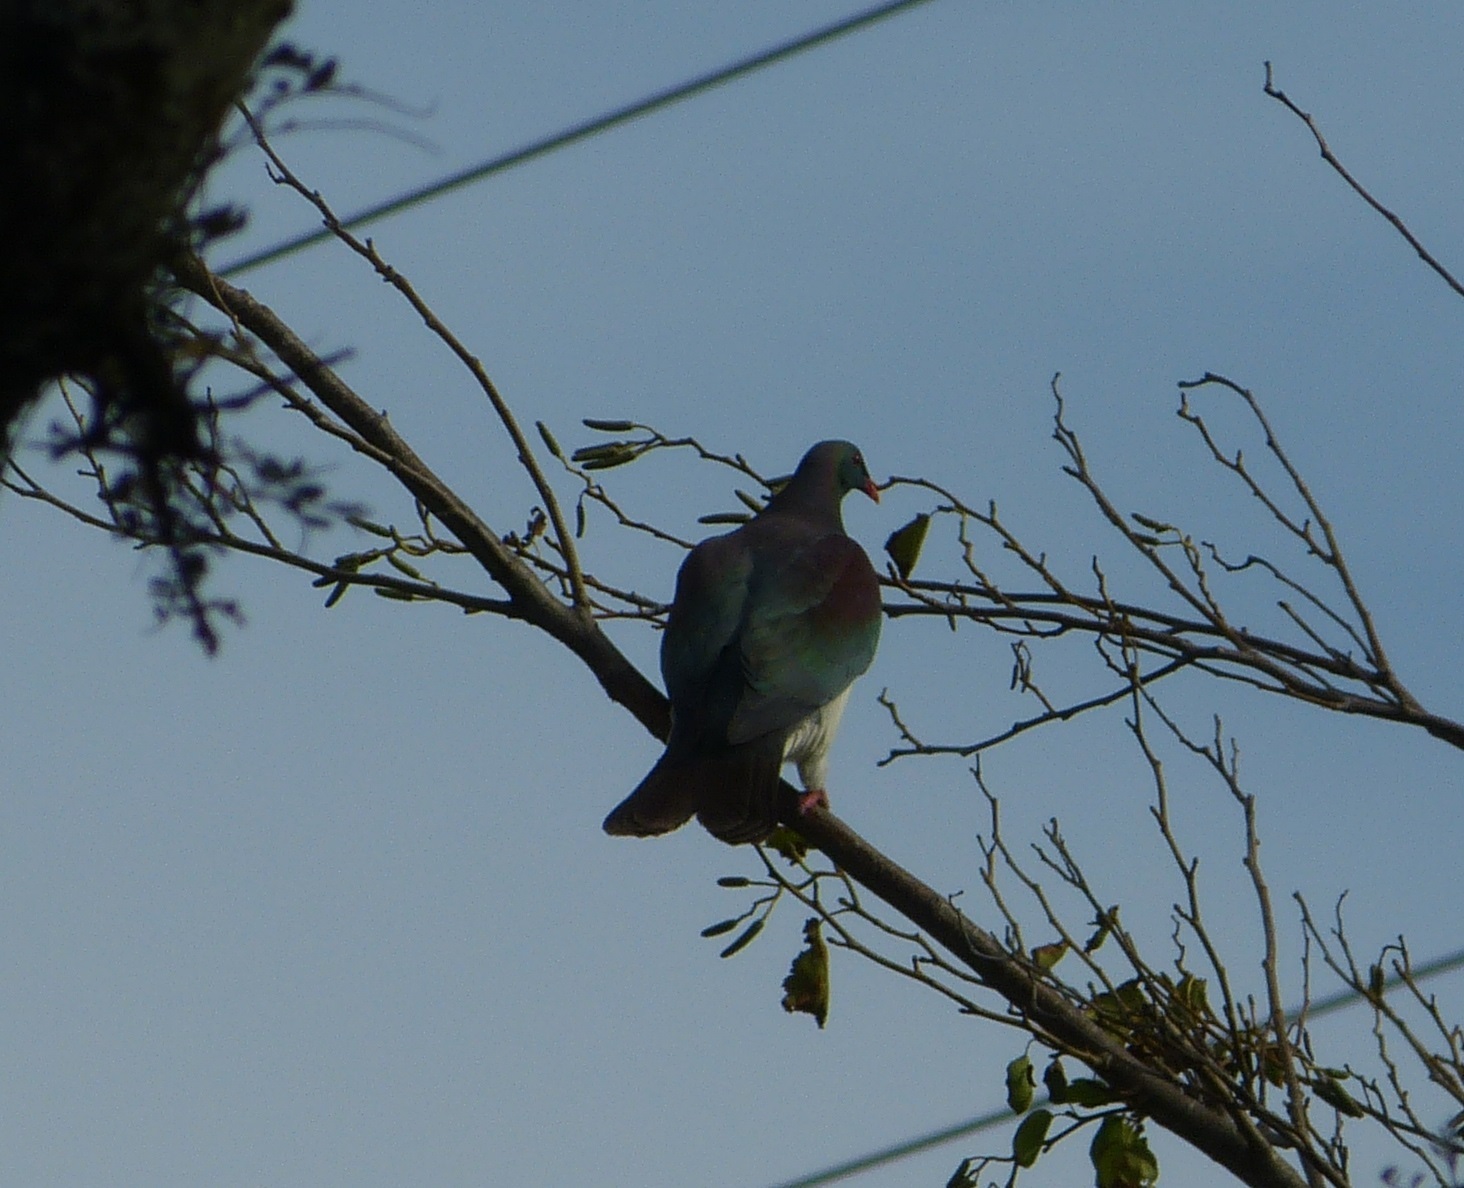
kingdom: Animalia
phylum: Chordata
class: Aves
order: Columbiformes
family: Columbidae
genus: Hemiphaga
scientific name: Hemiphaga novaeseelandiae
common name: New zealand pigeon
